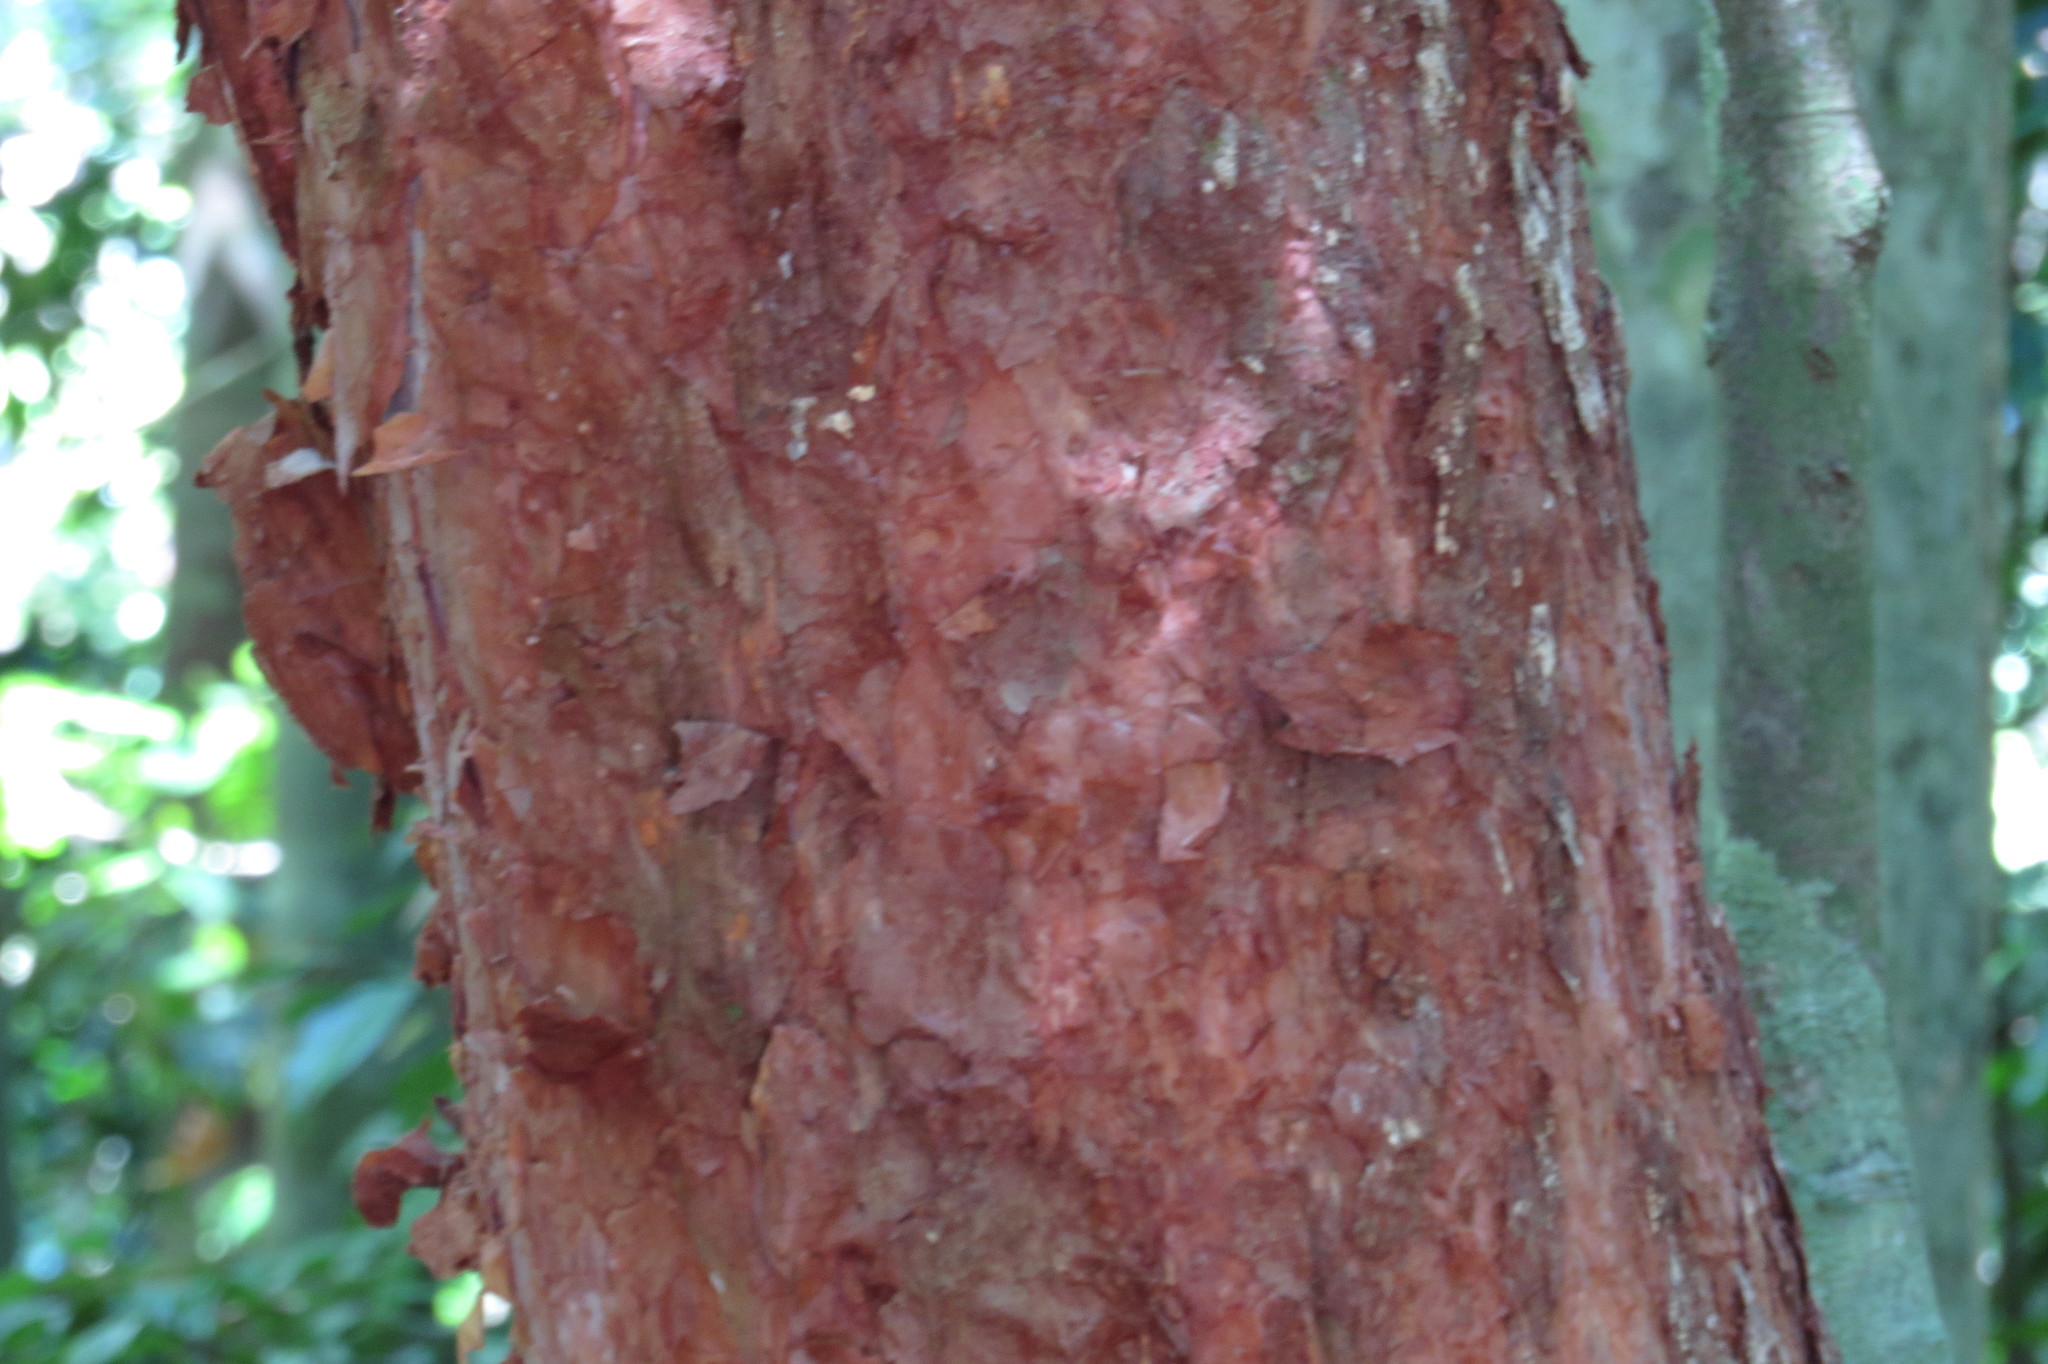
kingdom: Plantae
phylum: Tracheophyta
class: Magnoliopsida
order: Myrtales
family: Myrtaceae
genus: Syzygium
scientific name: Syzygium papyraceum
